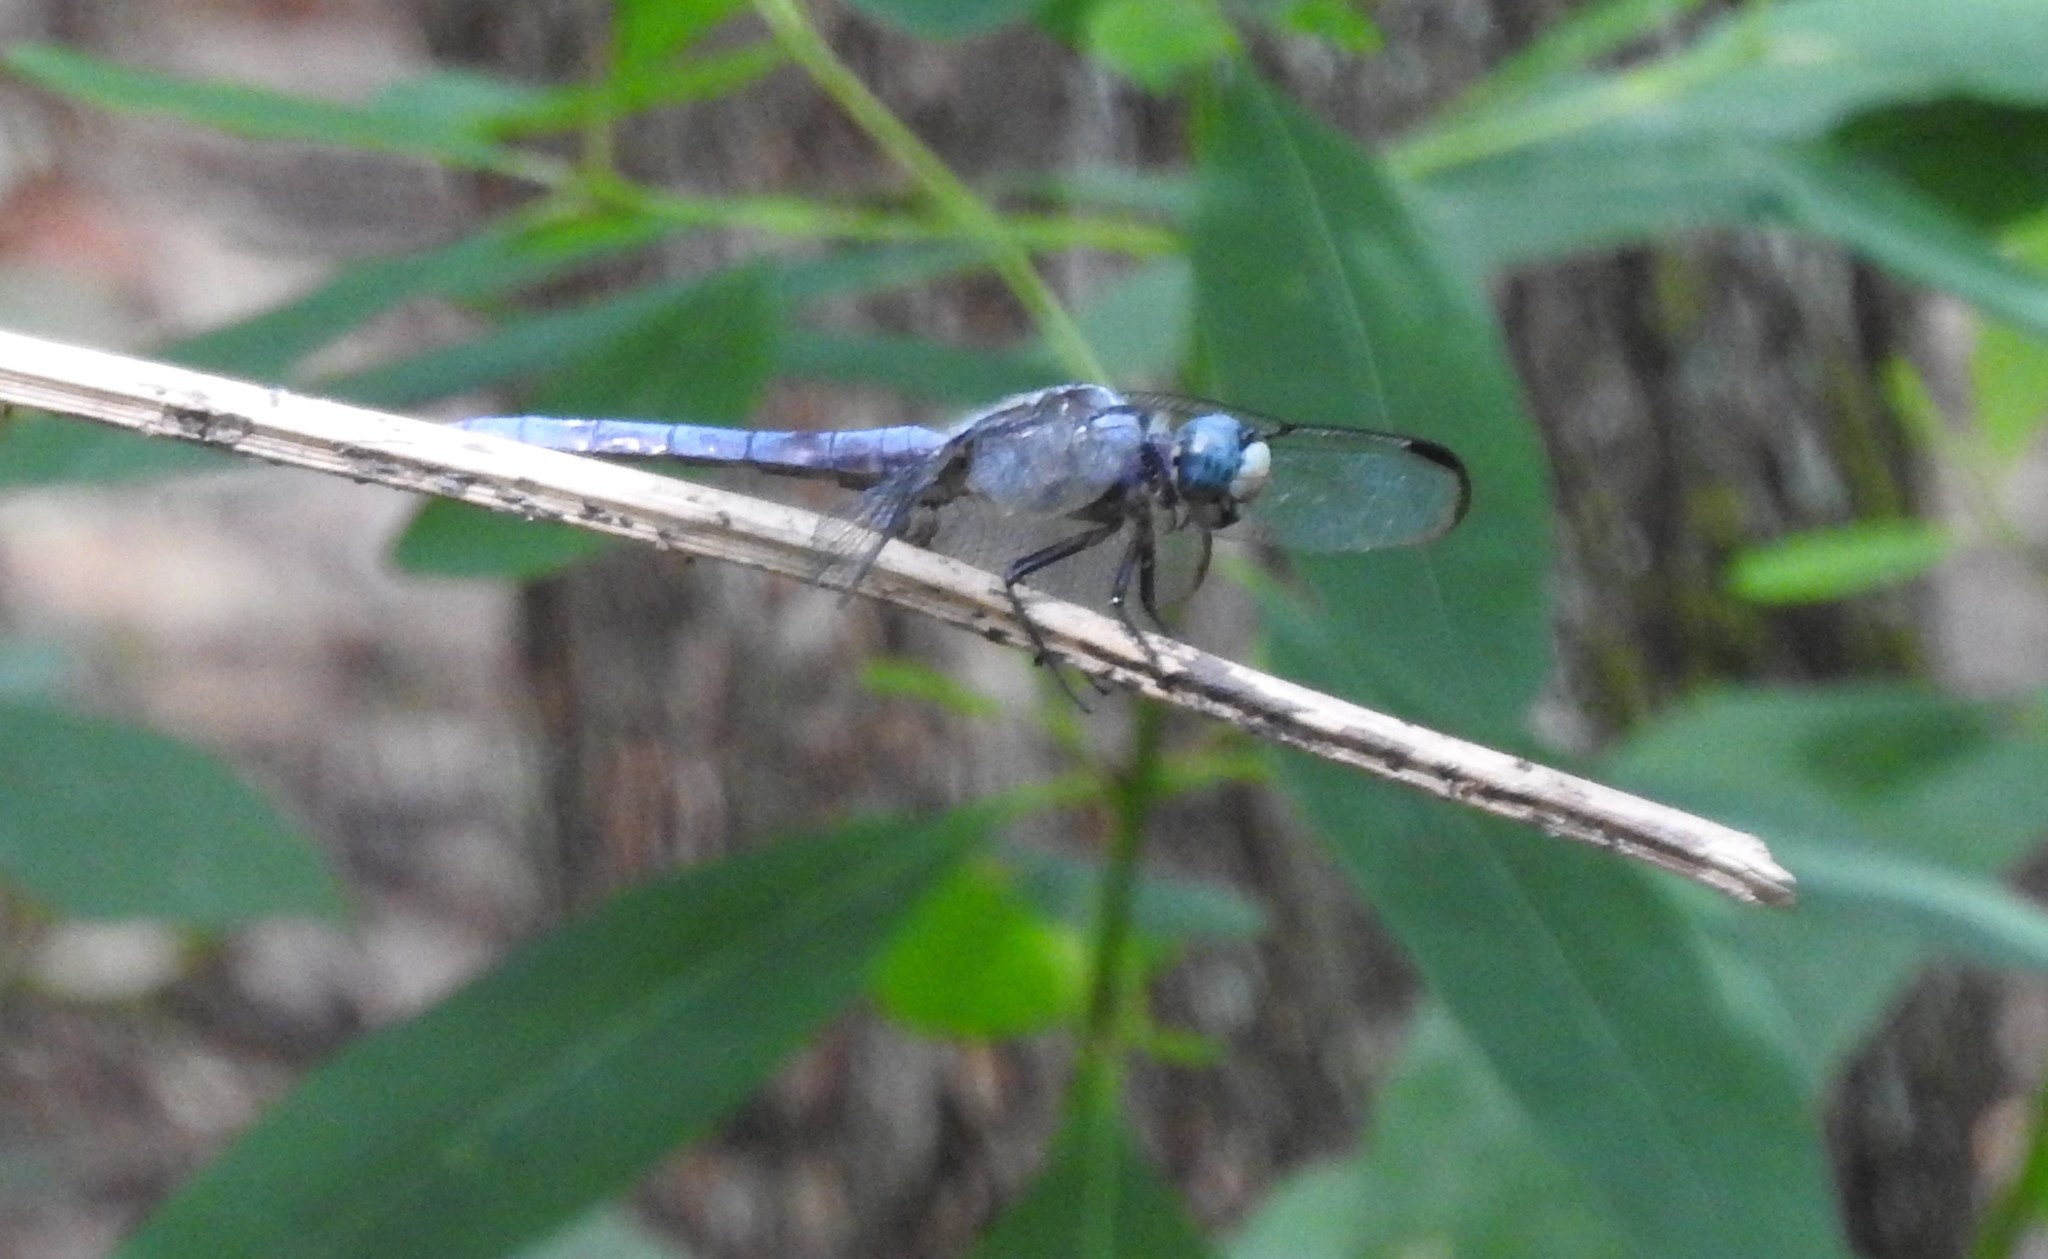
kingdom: Animalia
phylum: Arthropoda
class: Insecta
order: Odonata
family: Libellulidae
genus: Libellula
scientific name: Libellula vibrans
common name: Great blue skimmer
